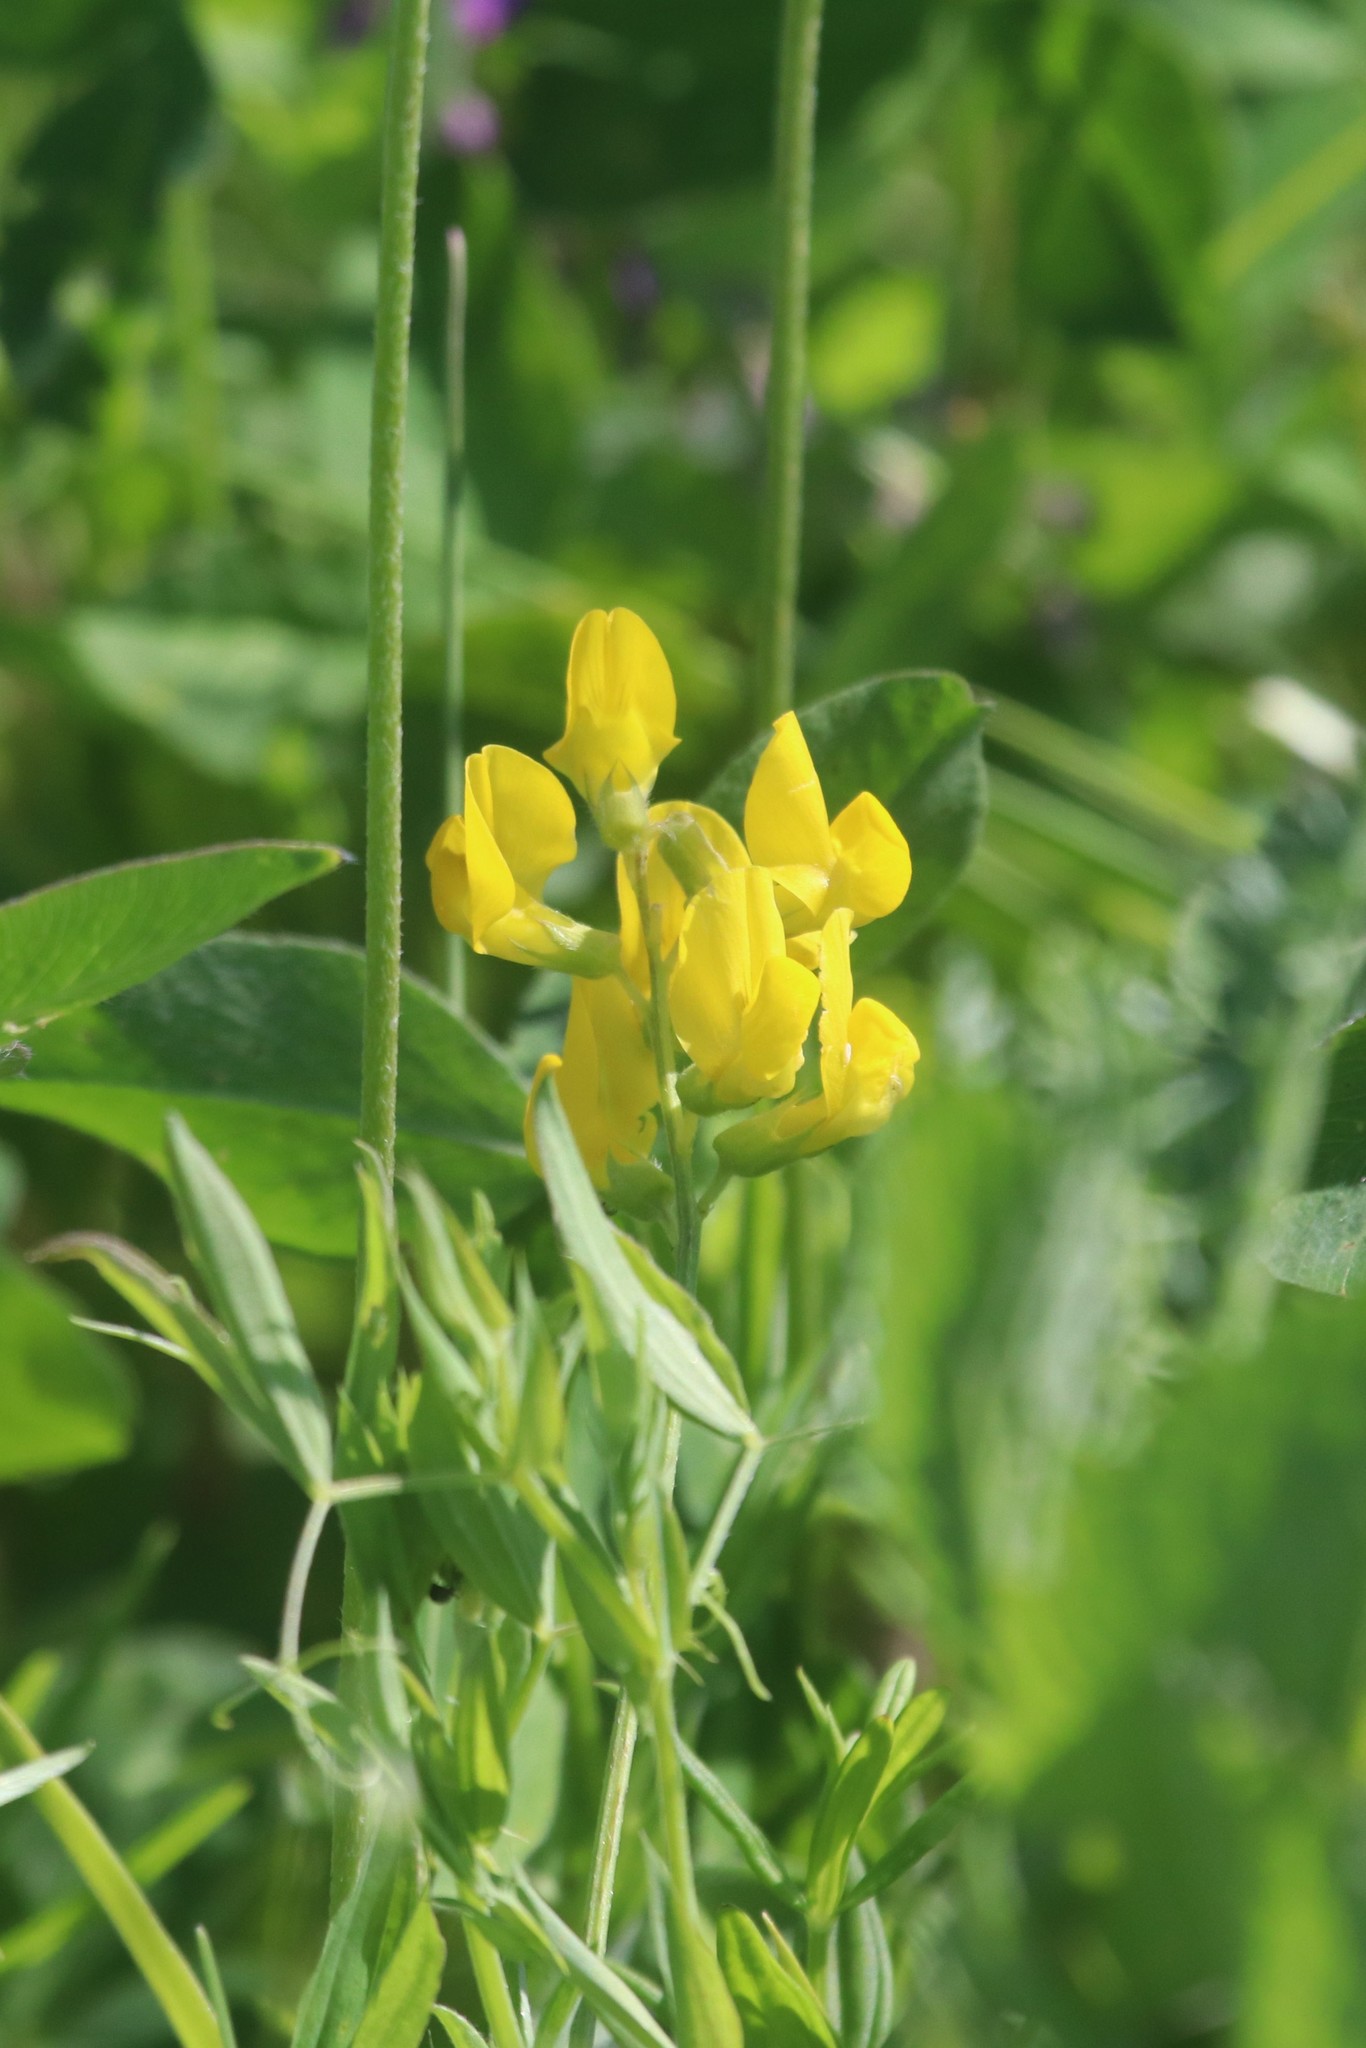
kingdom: Plantae
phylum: Tracheophyta
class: Magnoliopsida
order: Fabales
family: Fabaceae
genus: Lathyrus
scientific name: Lathyrus pratensis
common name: Meadow vetchling
